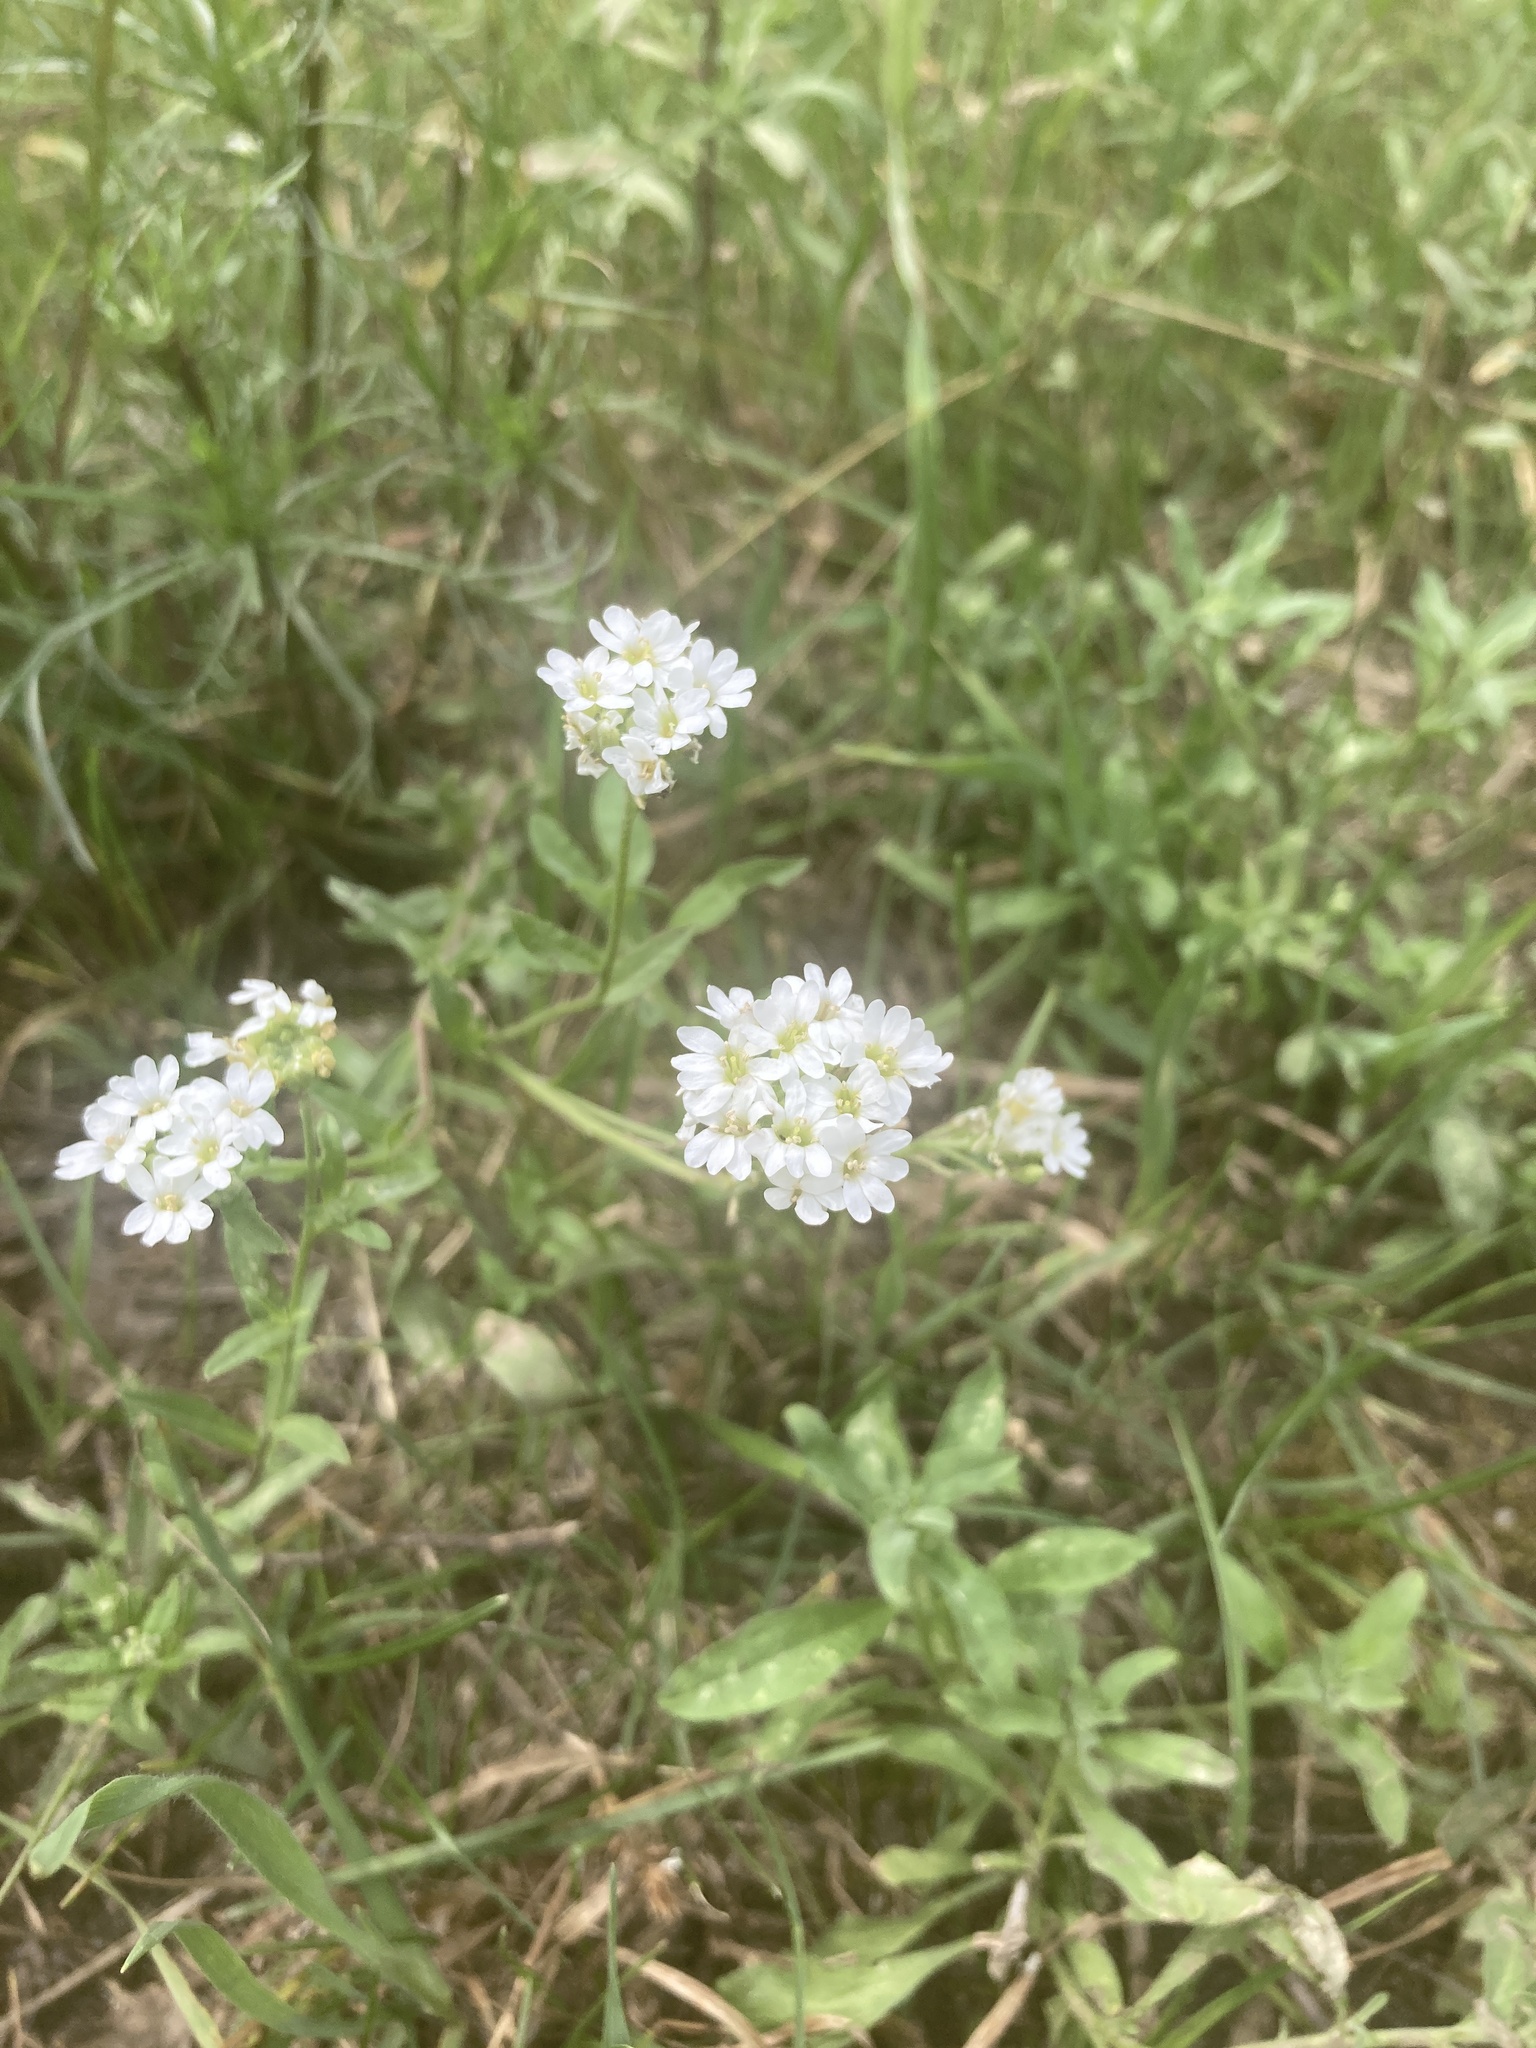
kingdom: Plantae
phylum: Tracheophyta
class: Magnoliopsida
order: Brassicales
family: Brassicaceae
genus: Berteroa
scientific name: Berteroa incana
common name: Hoary alison
